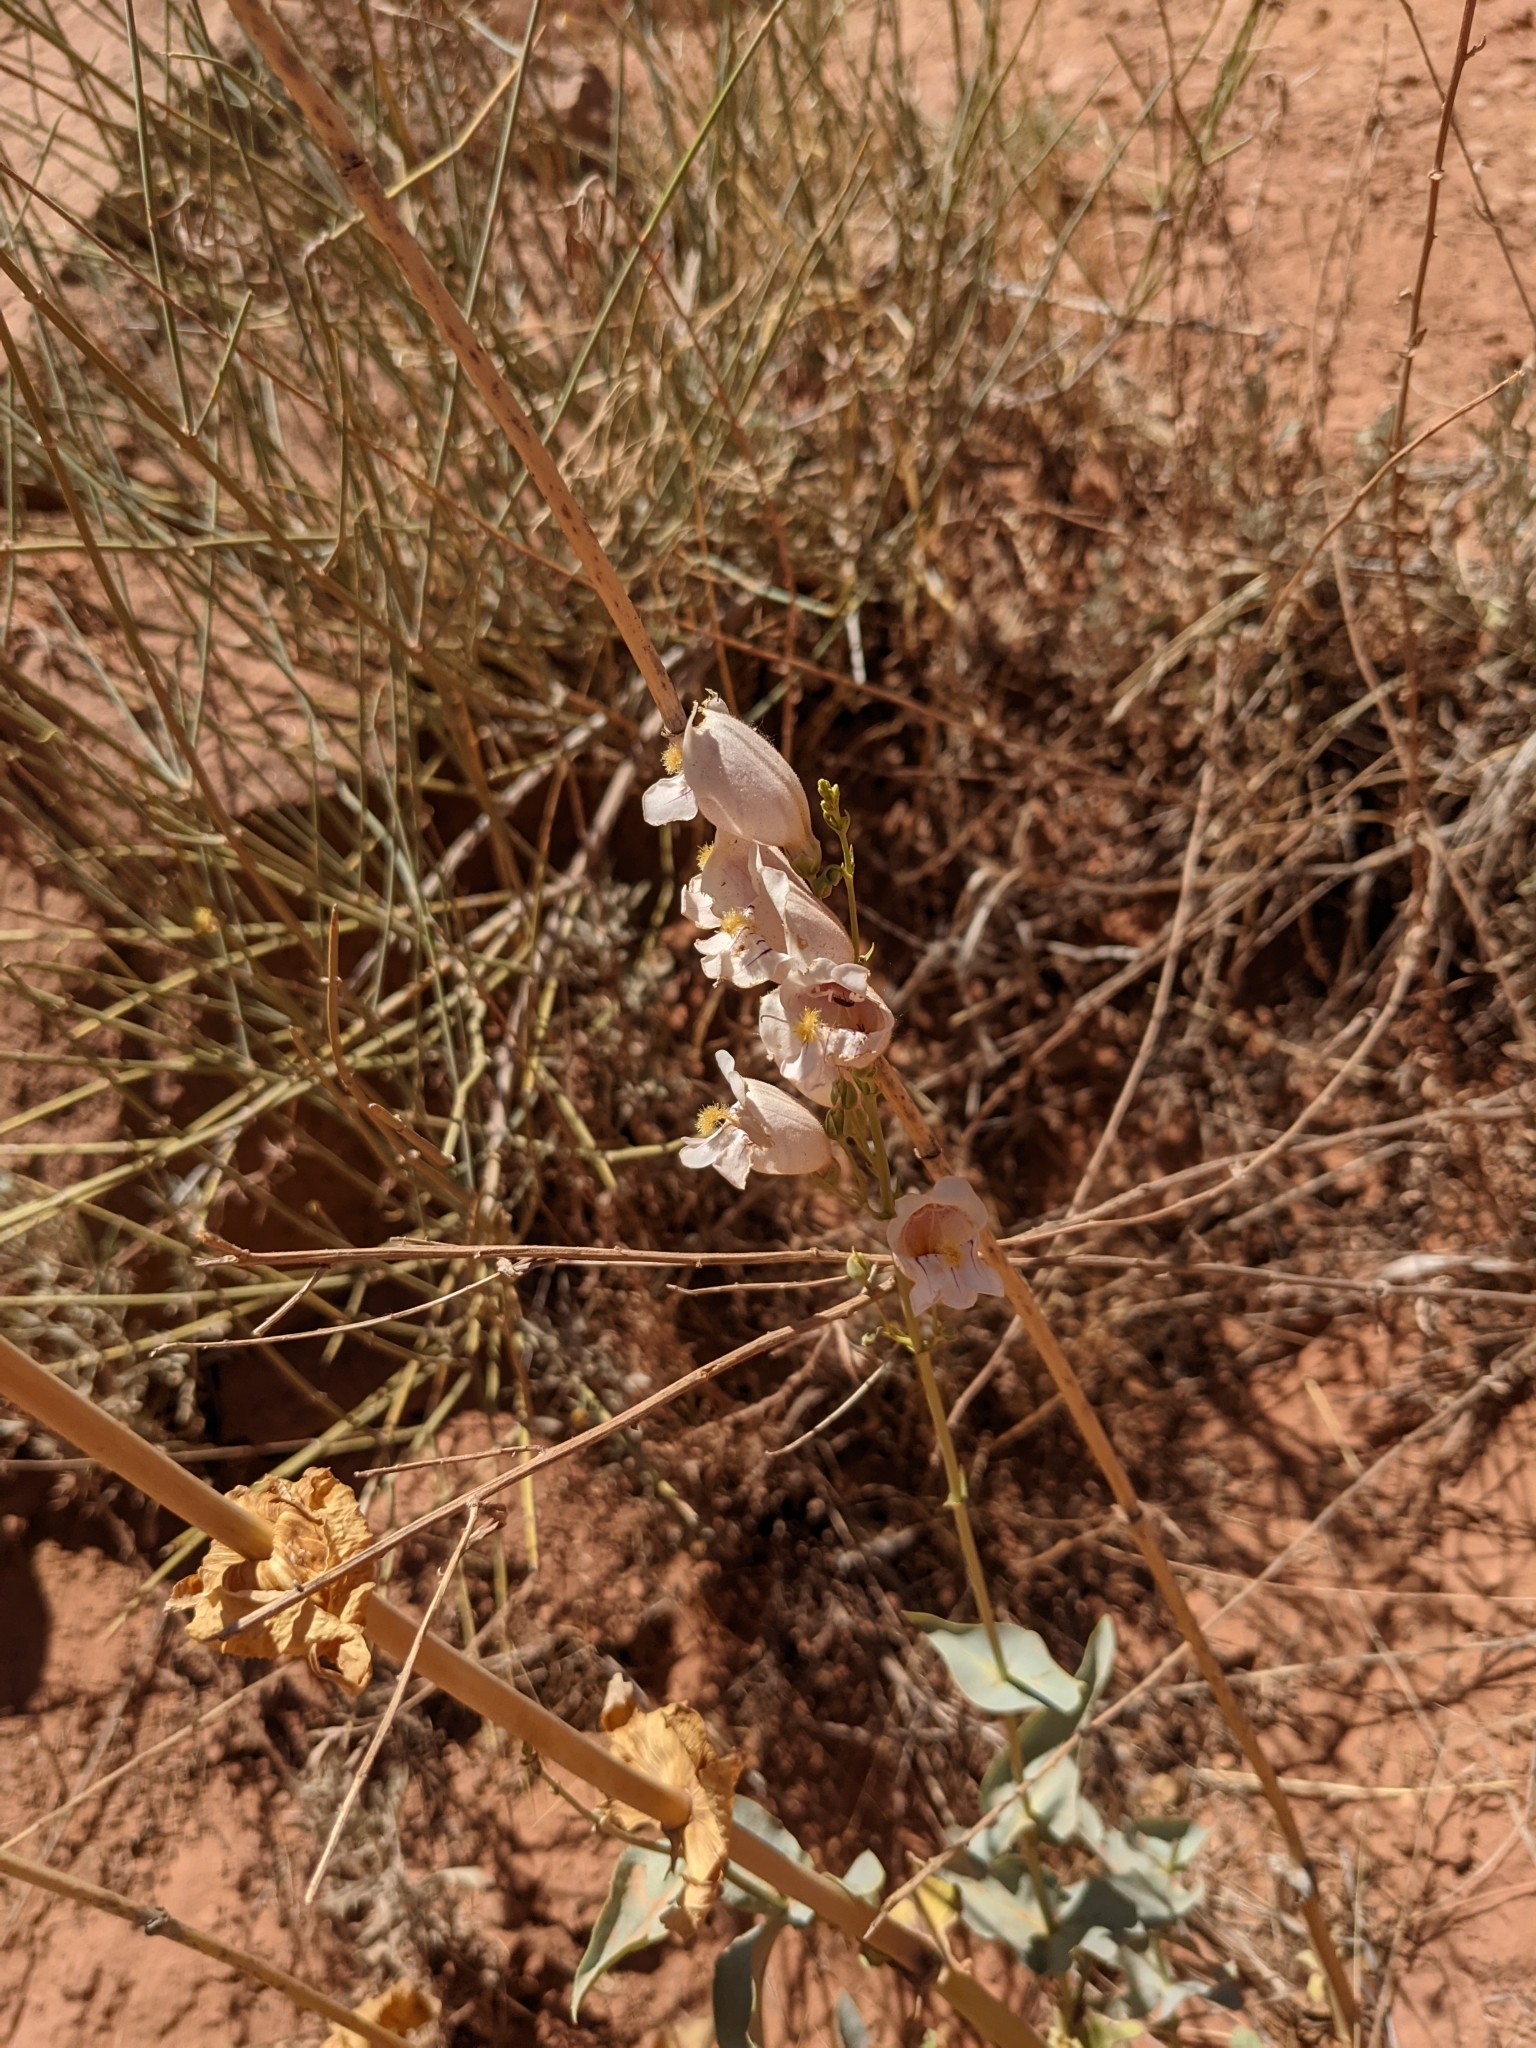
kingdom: Plantae
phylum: Tracheophyta
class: Magnoliopsida
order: Lamiales
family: Plantaginaceae
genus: Penstemon
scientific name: Penstemon palmeri
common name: Palmer penstemon
